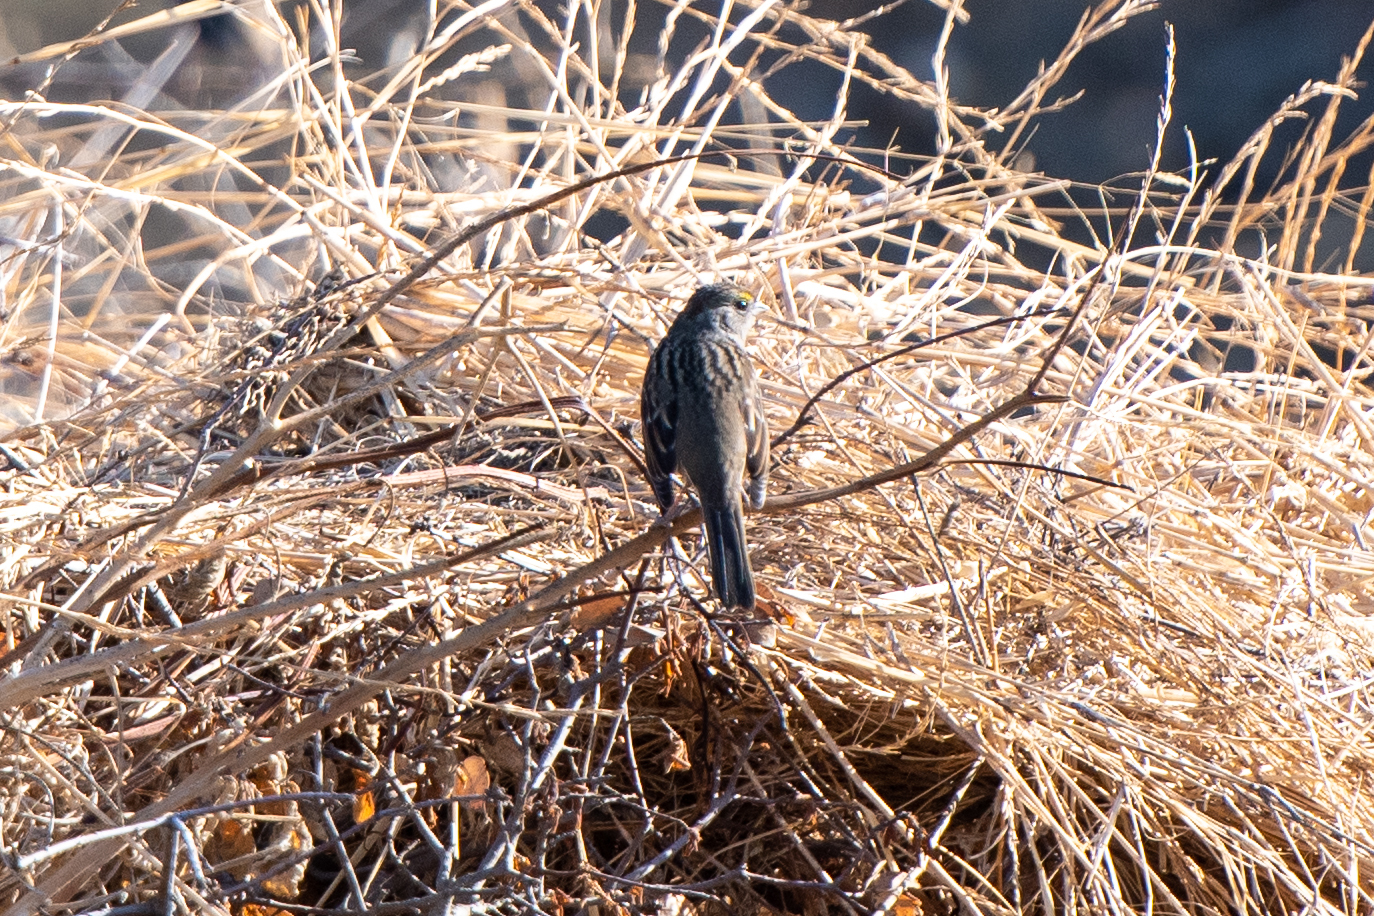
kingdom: Animalia
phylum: Chordata
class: Aves
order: Passeriformes
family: Passerellidae
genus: Zonotrichia
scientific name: Zonotrichia atricapilla
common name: Golden-crowned sparrow
